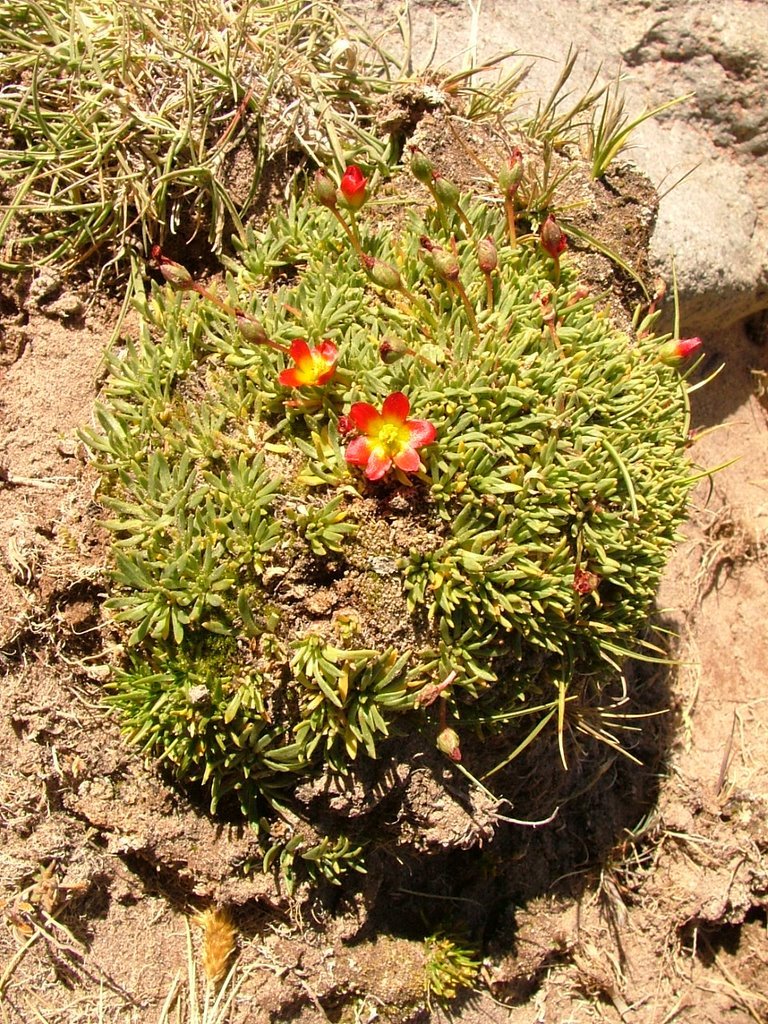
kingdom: Plantae
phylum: Tracheophyta
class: Magnoliopsida
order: Caryophyllales
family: Montiaceae
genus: Calandrinia
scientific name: Calandrinia caespitosa
